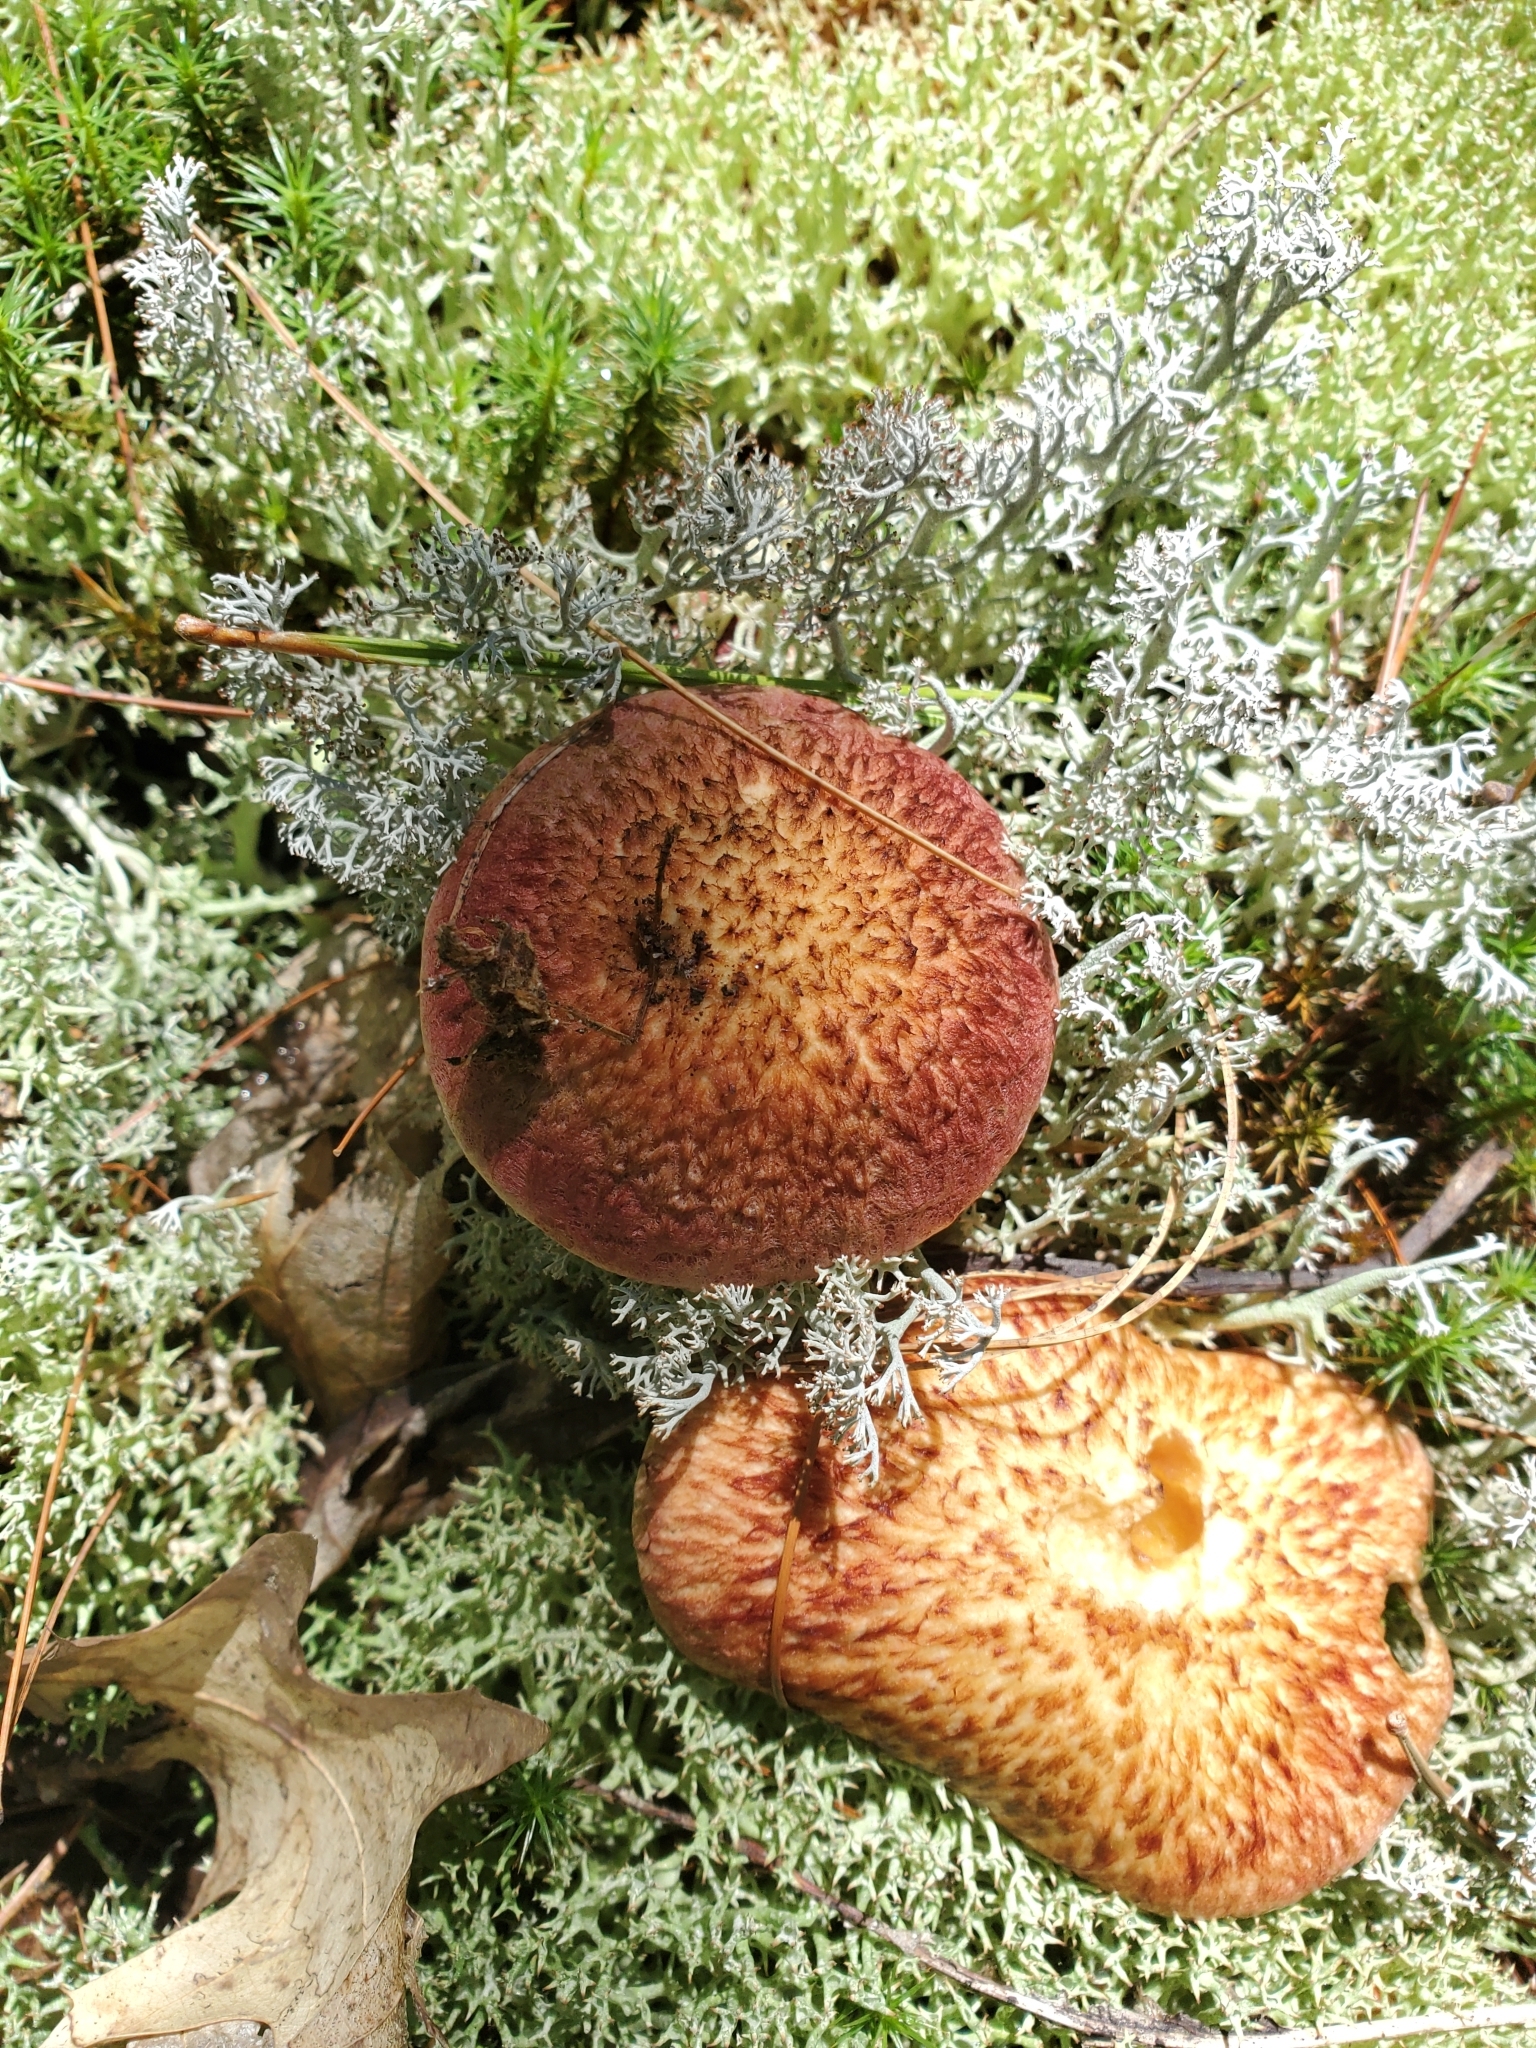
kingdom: Fungi
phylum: Basidiomycota
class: Agaricomycetes
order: Boletales
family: Suillaceae
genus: Suillus
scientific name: Suillus spraguei
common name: Painted suillus
